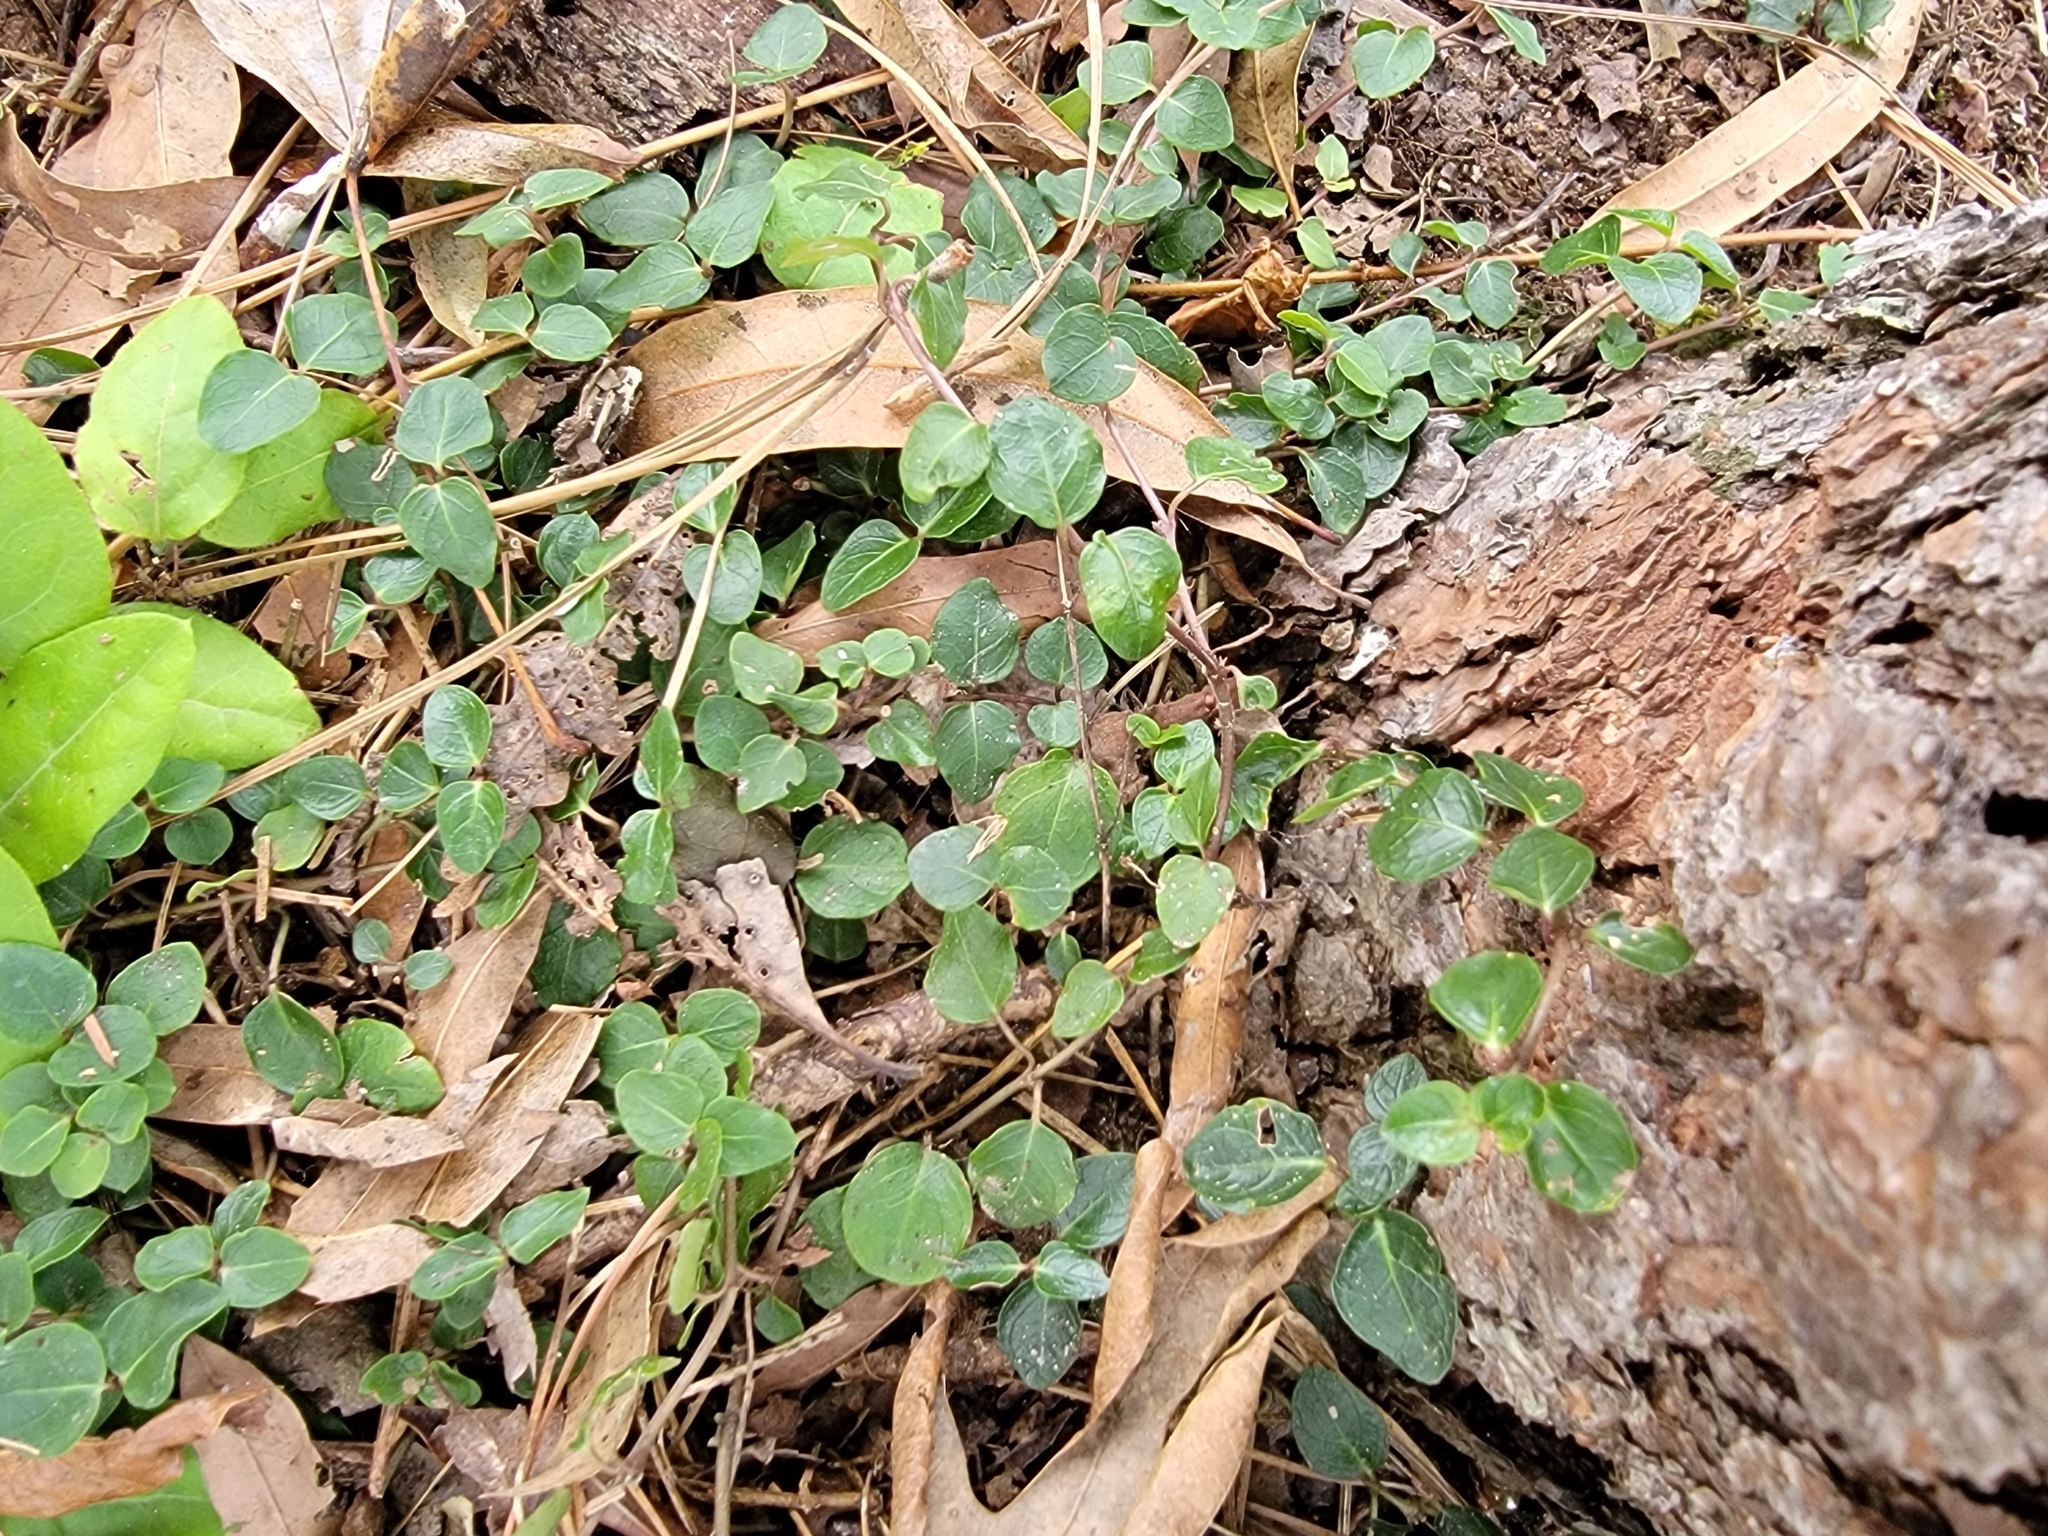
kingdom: Plantae
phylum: Tracheophyta
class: Magnoliopsida
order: Gentianales
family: Rubiaceae
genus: Mitchella
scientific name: Mitchella repens
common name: Partridge-berry
